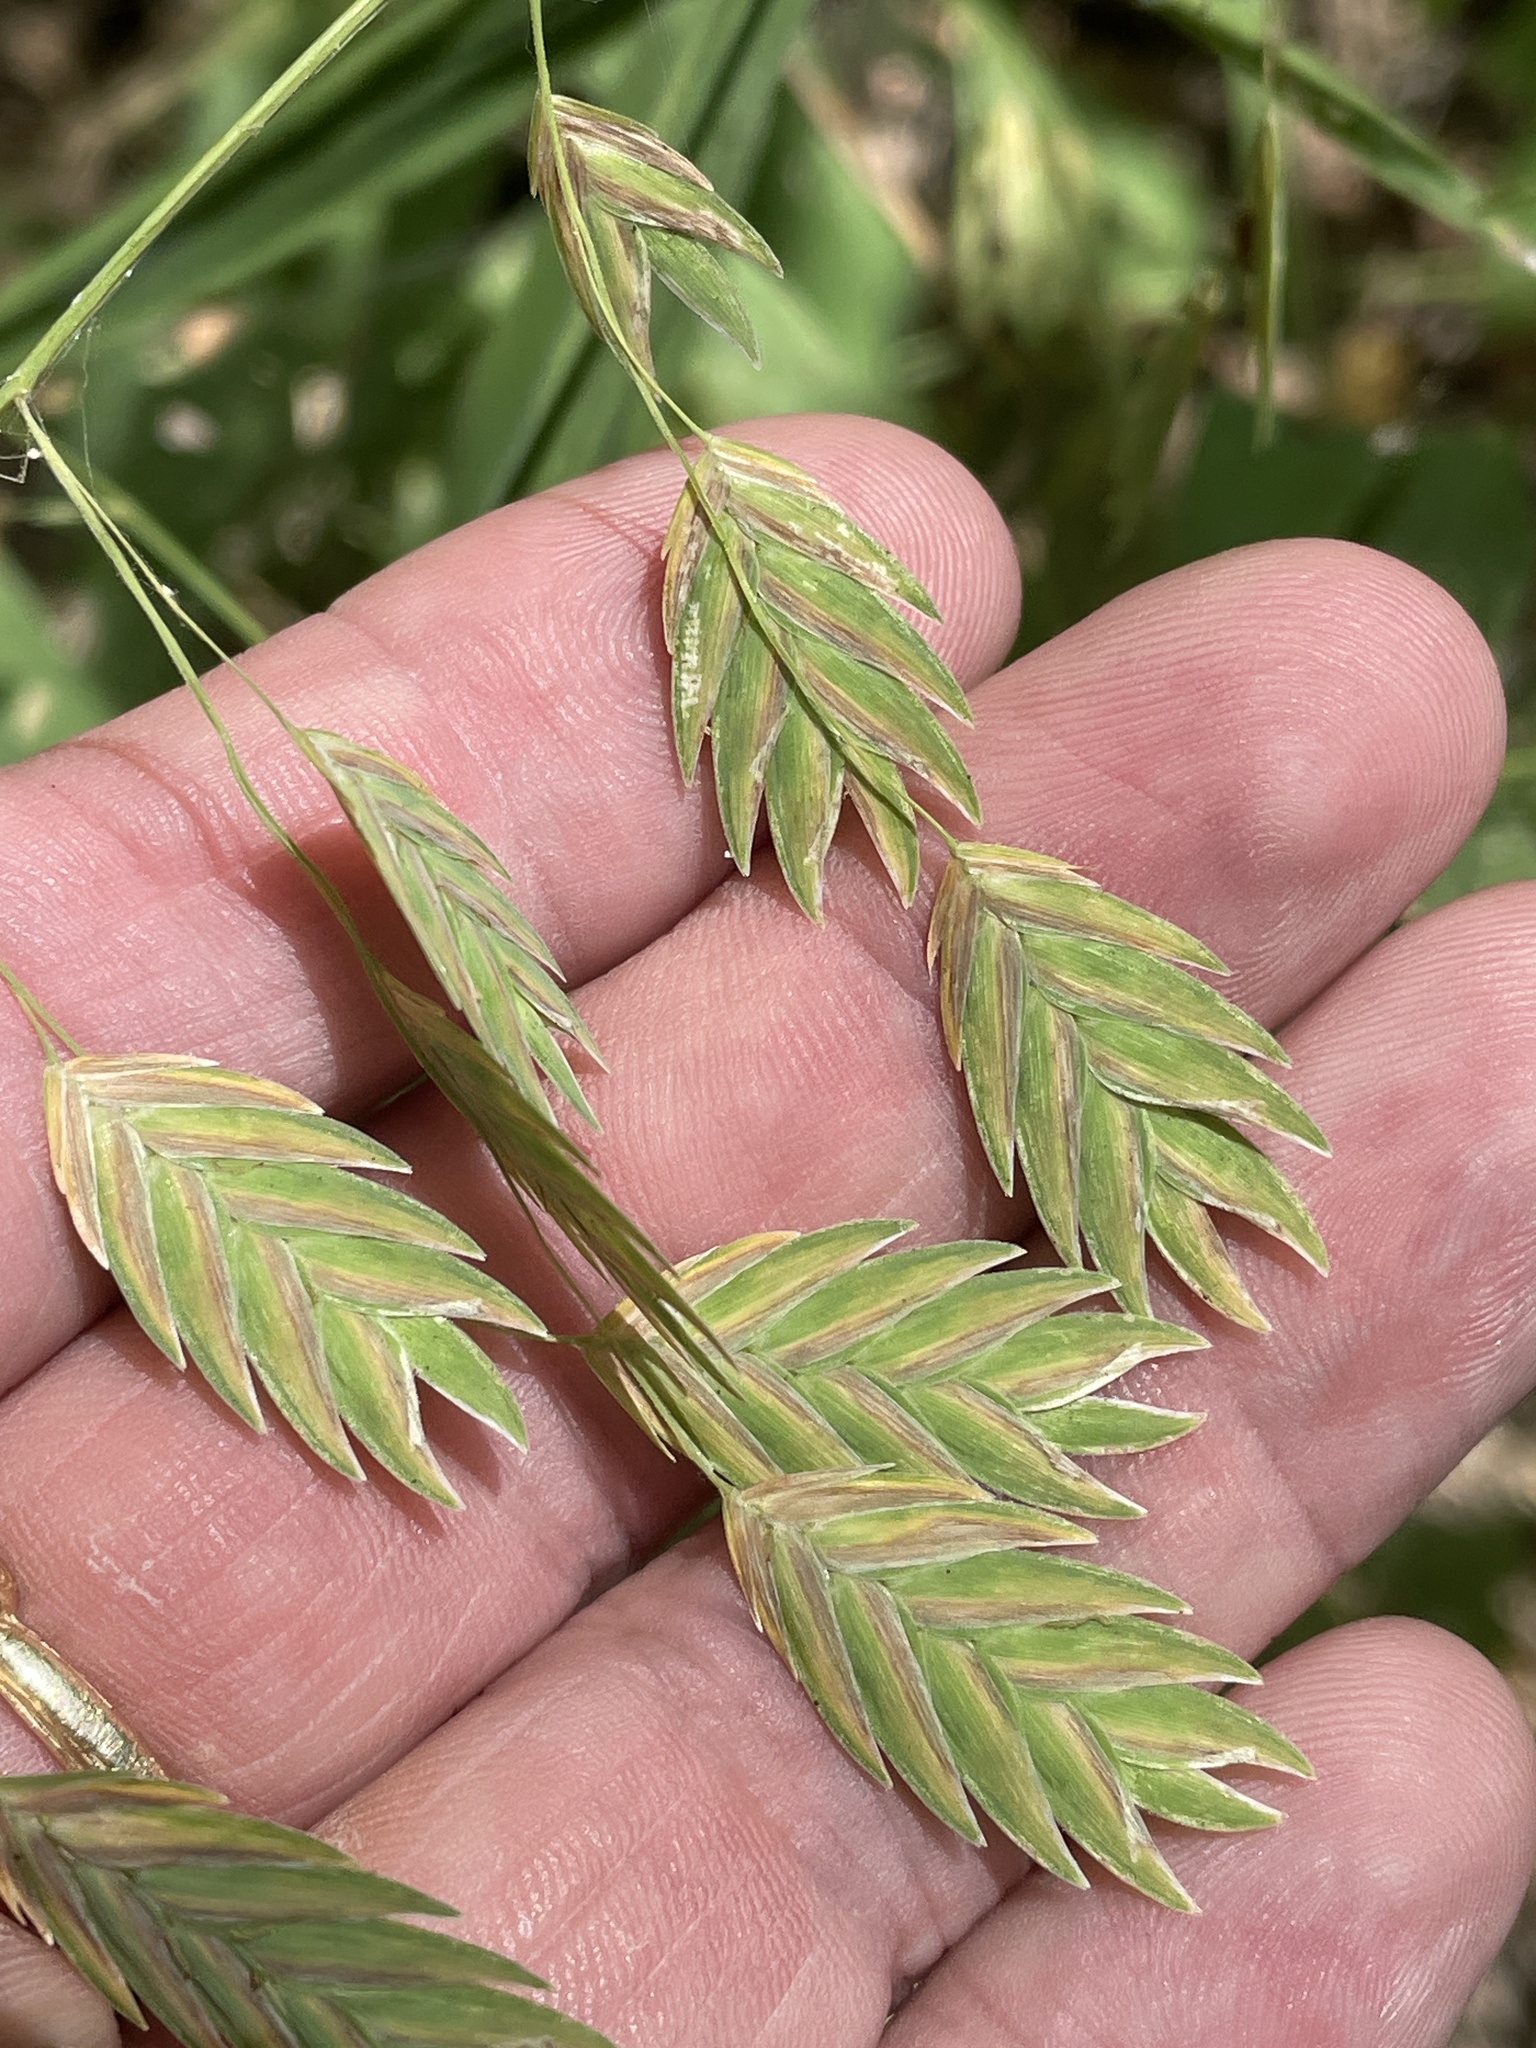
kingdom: Plantae
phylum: Tracheophyta
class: Liliopsida
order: Poales
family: Poaceae
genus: Chasmanthium
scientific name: Chasmanthium latifolium
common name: Broad-leaved chasmanthium
